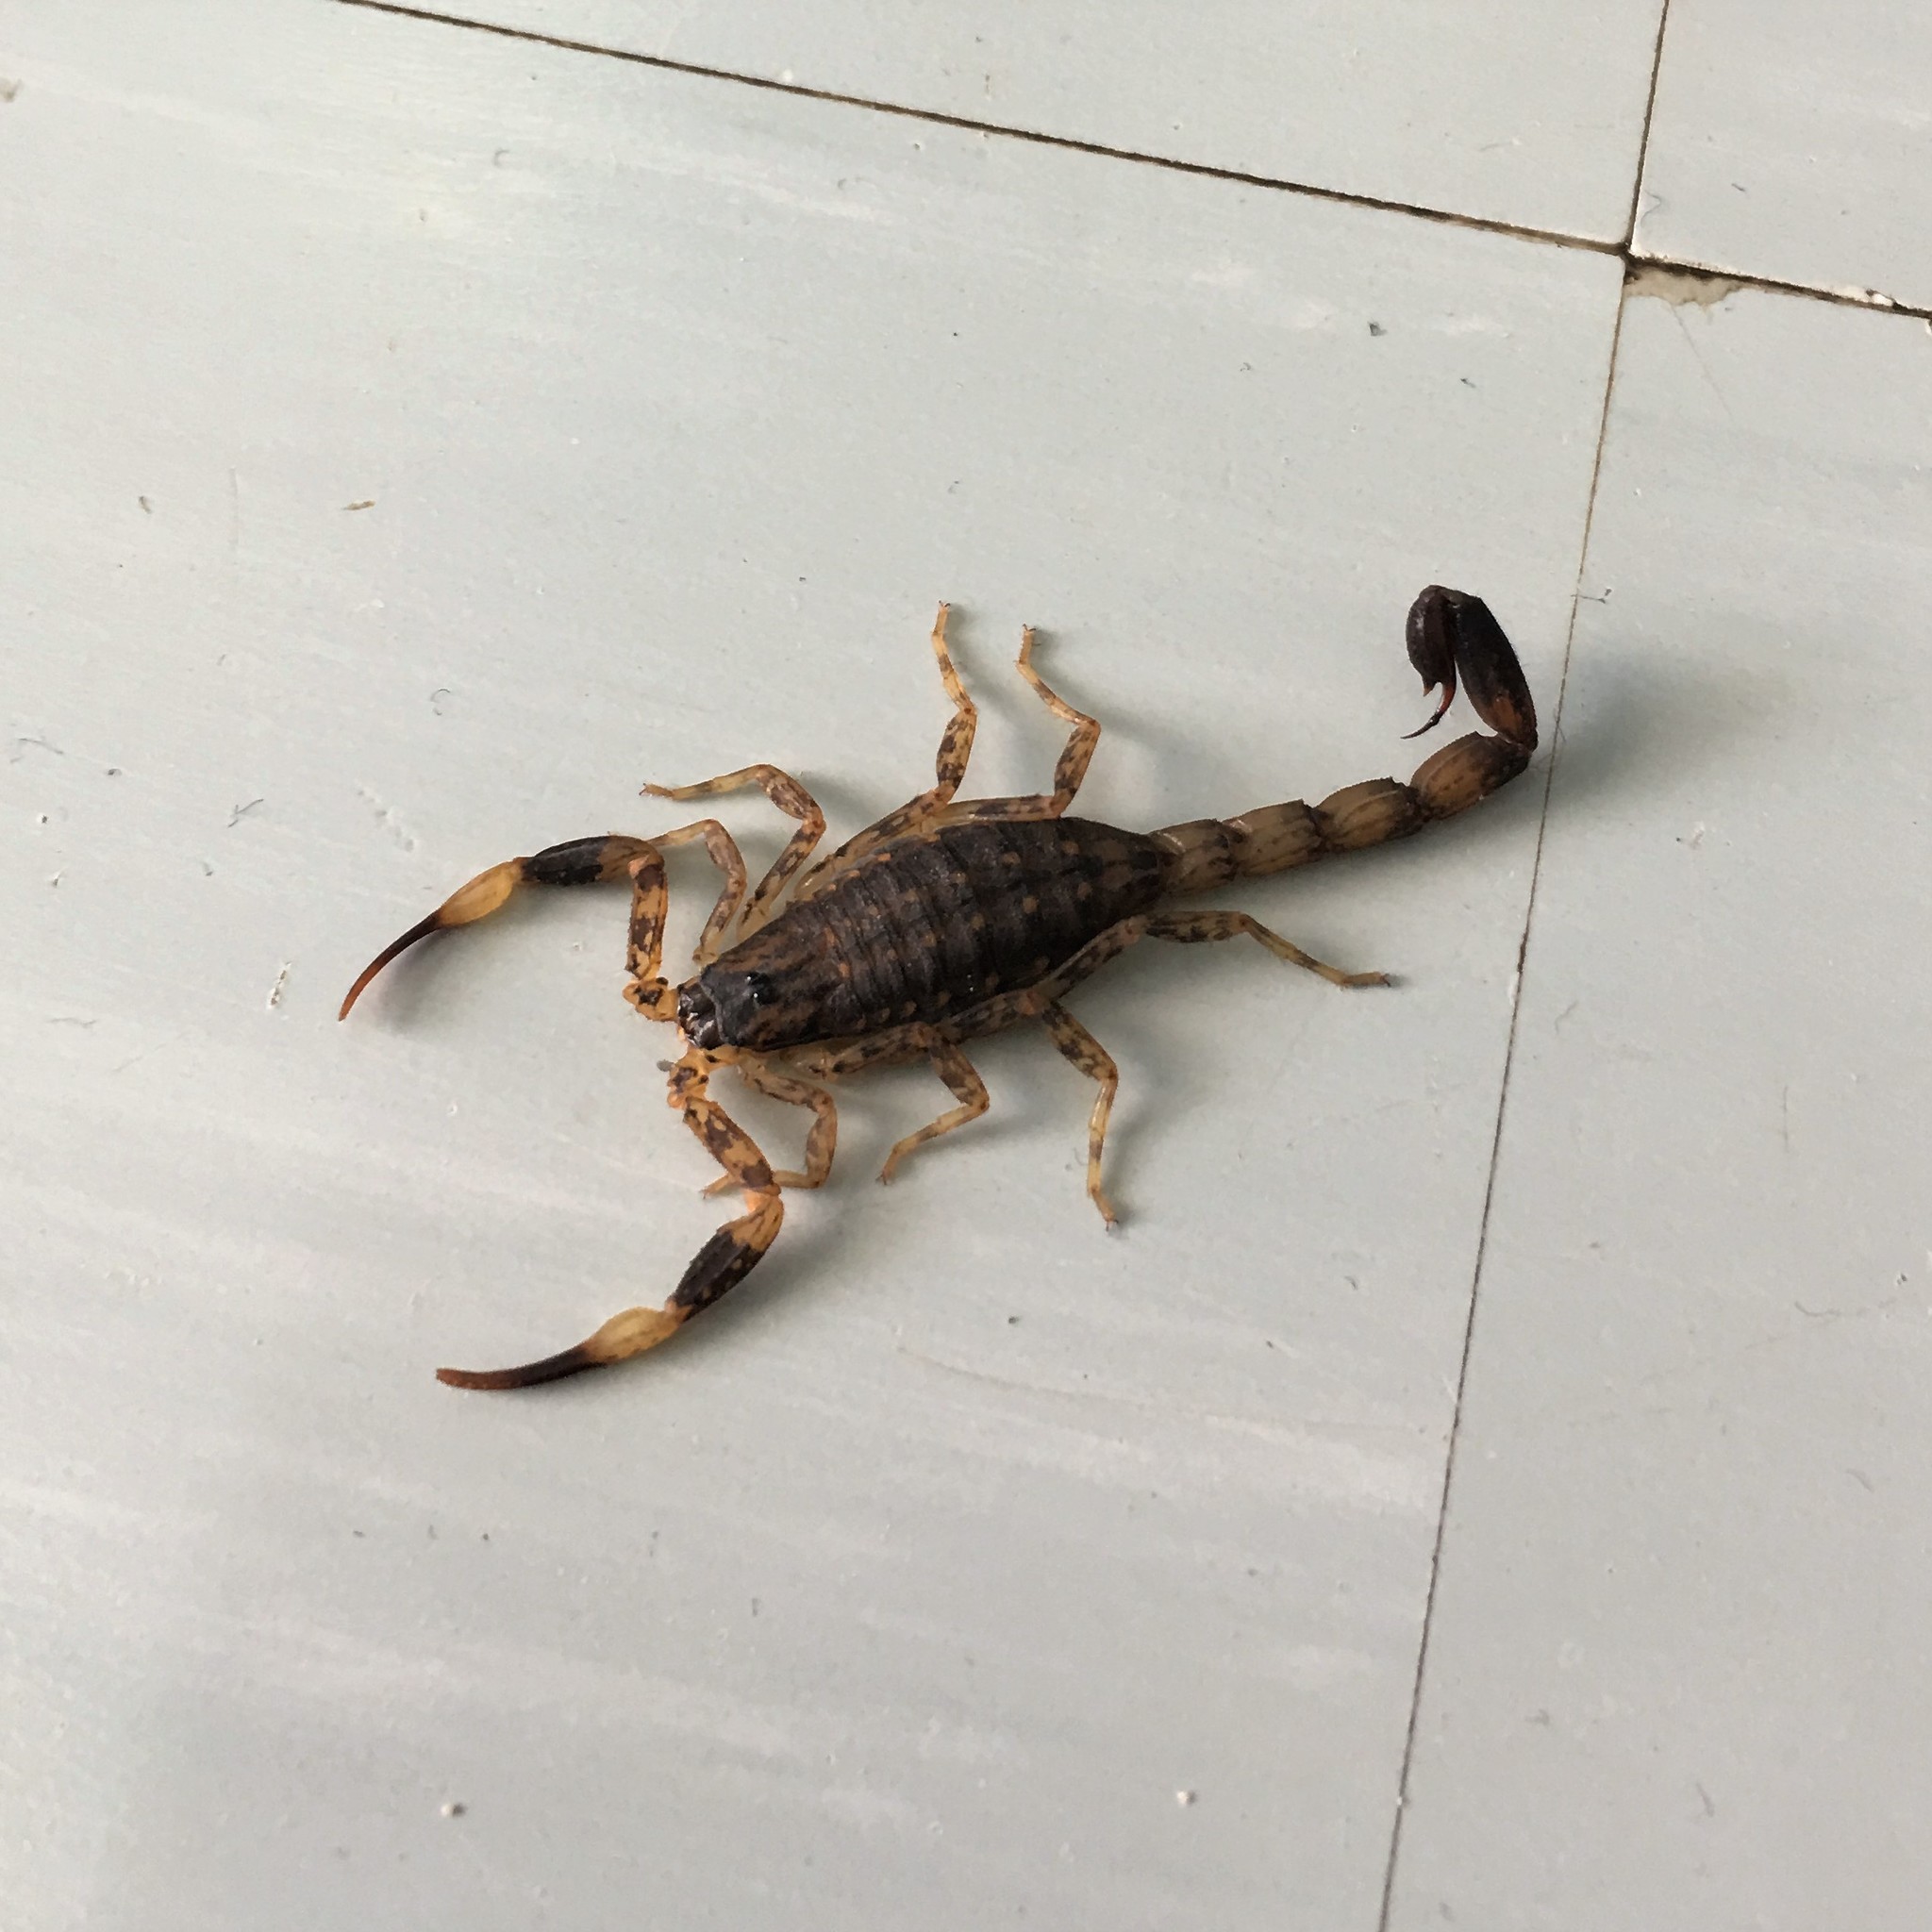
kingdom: Animalia
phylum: Arthropoda
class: Arachnida
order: Scorpiones
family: Buthidae
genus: Lychas
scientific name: Lychas mucronatus
